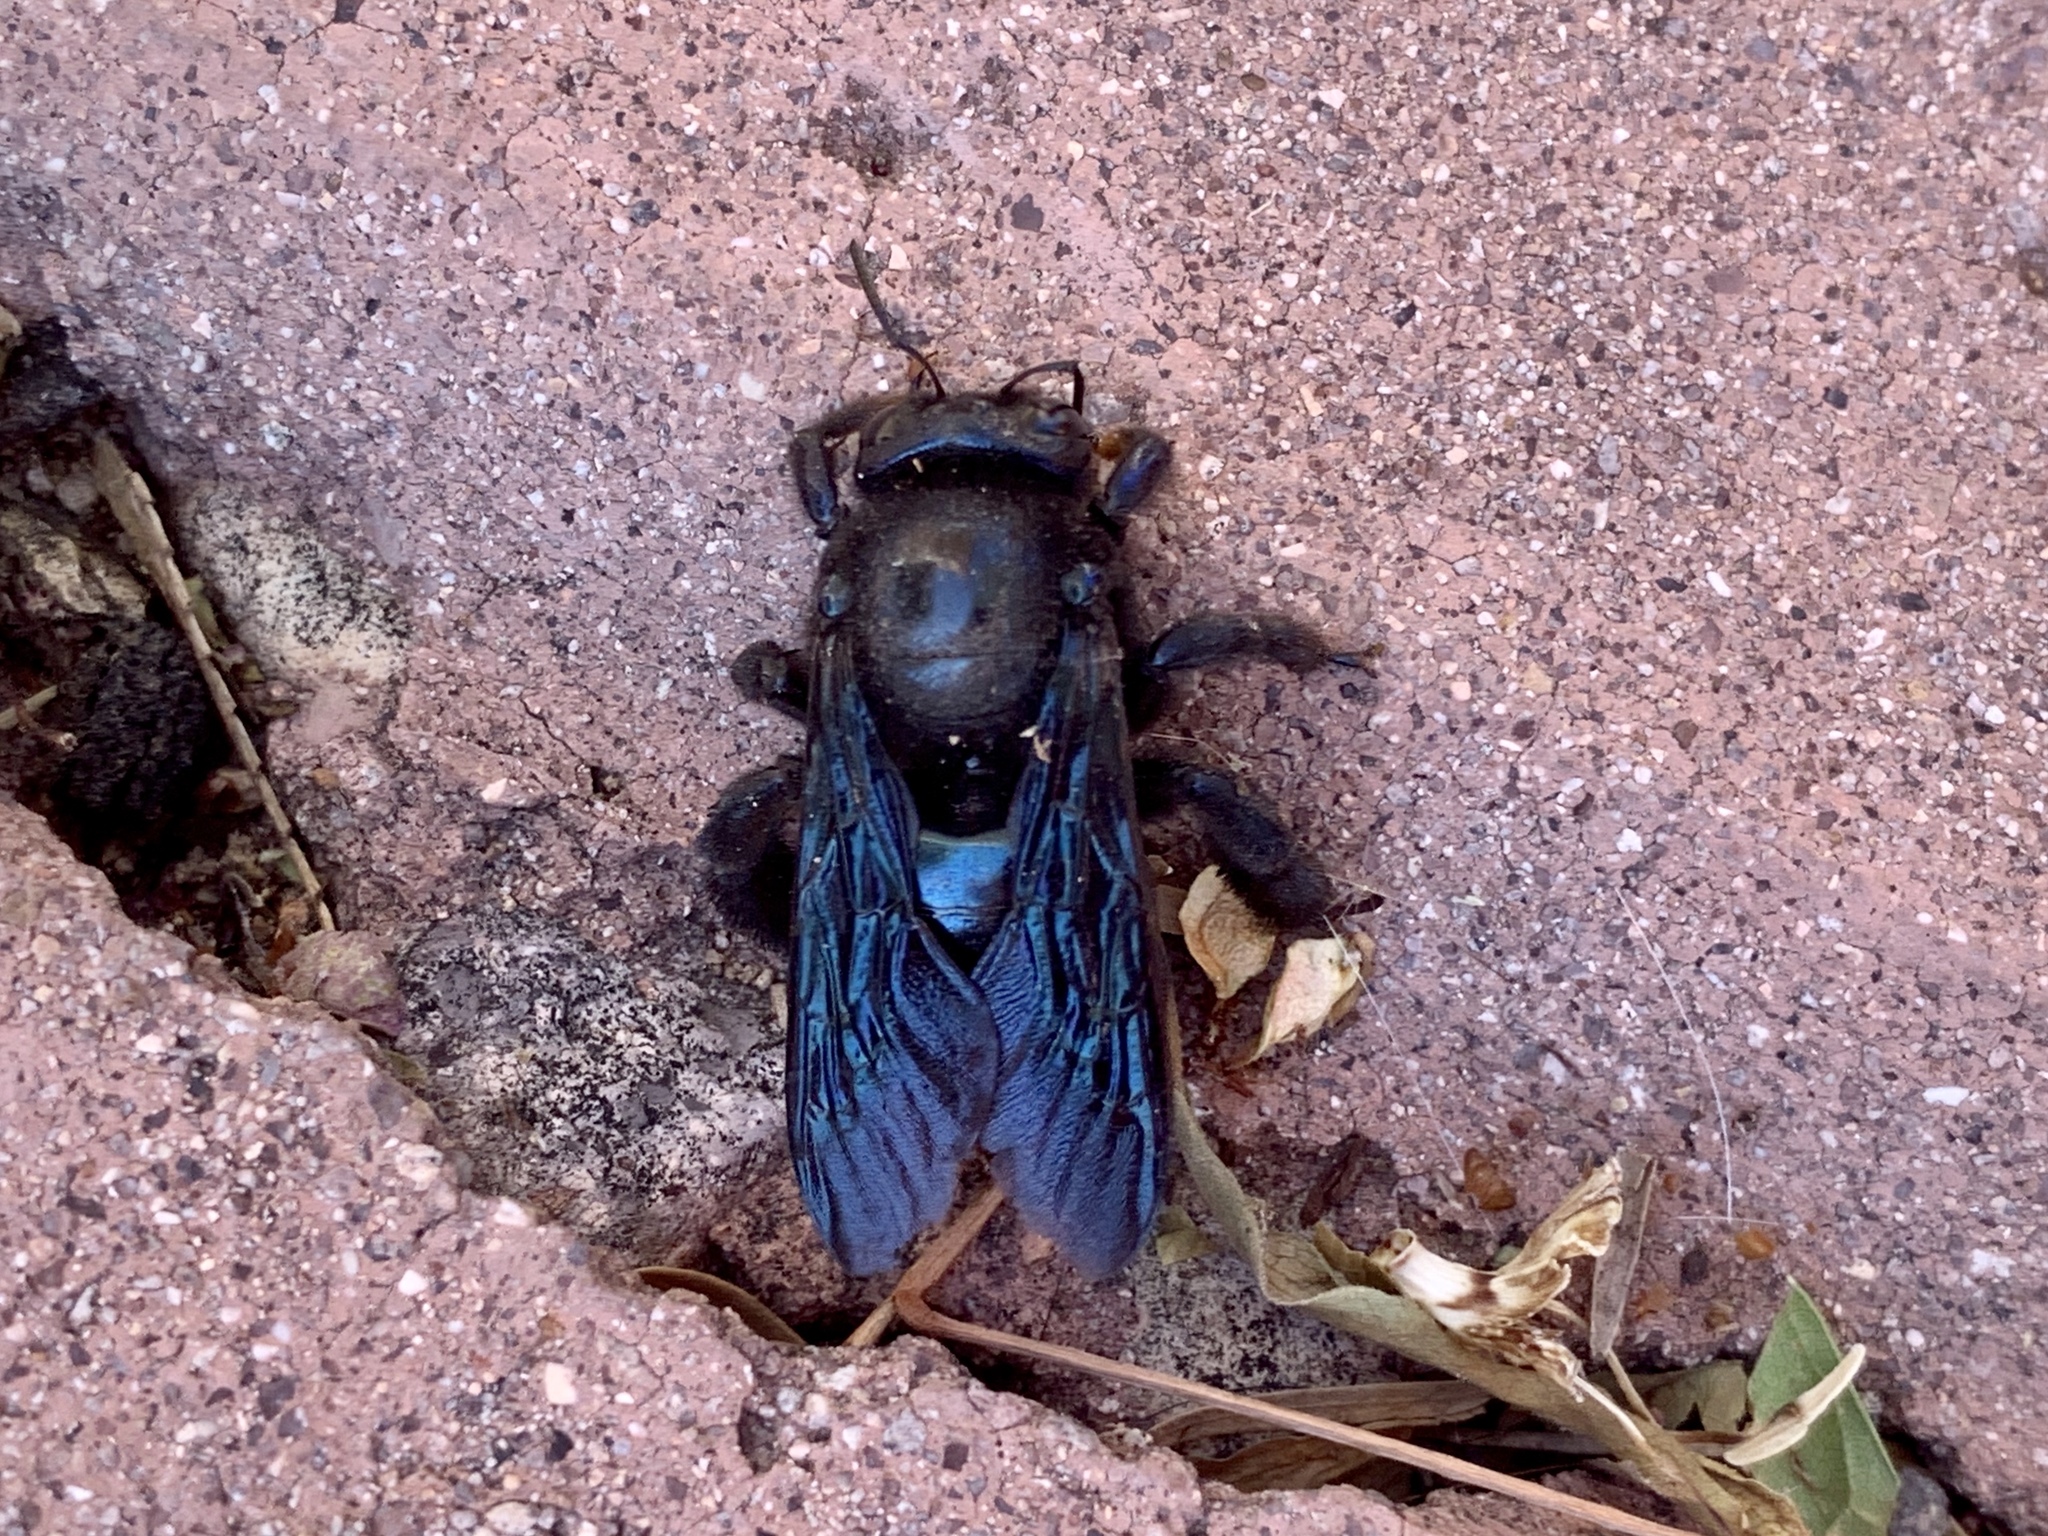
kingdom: Animalia
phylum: Arthropoda
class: Insecta
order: Hymenoptera
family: Apidae
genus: Xylocopa
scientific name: Xylocopa californica
